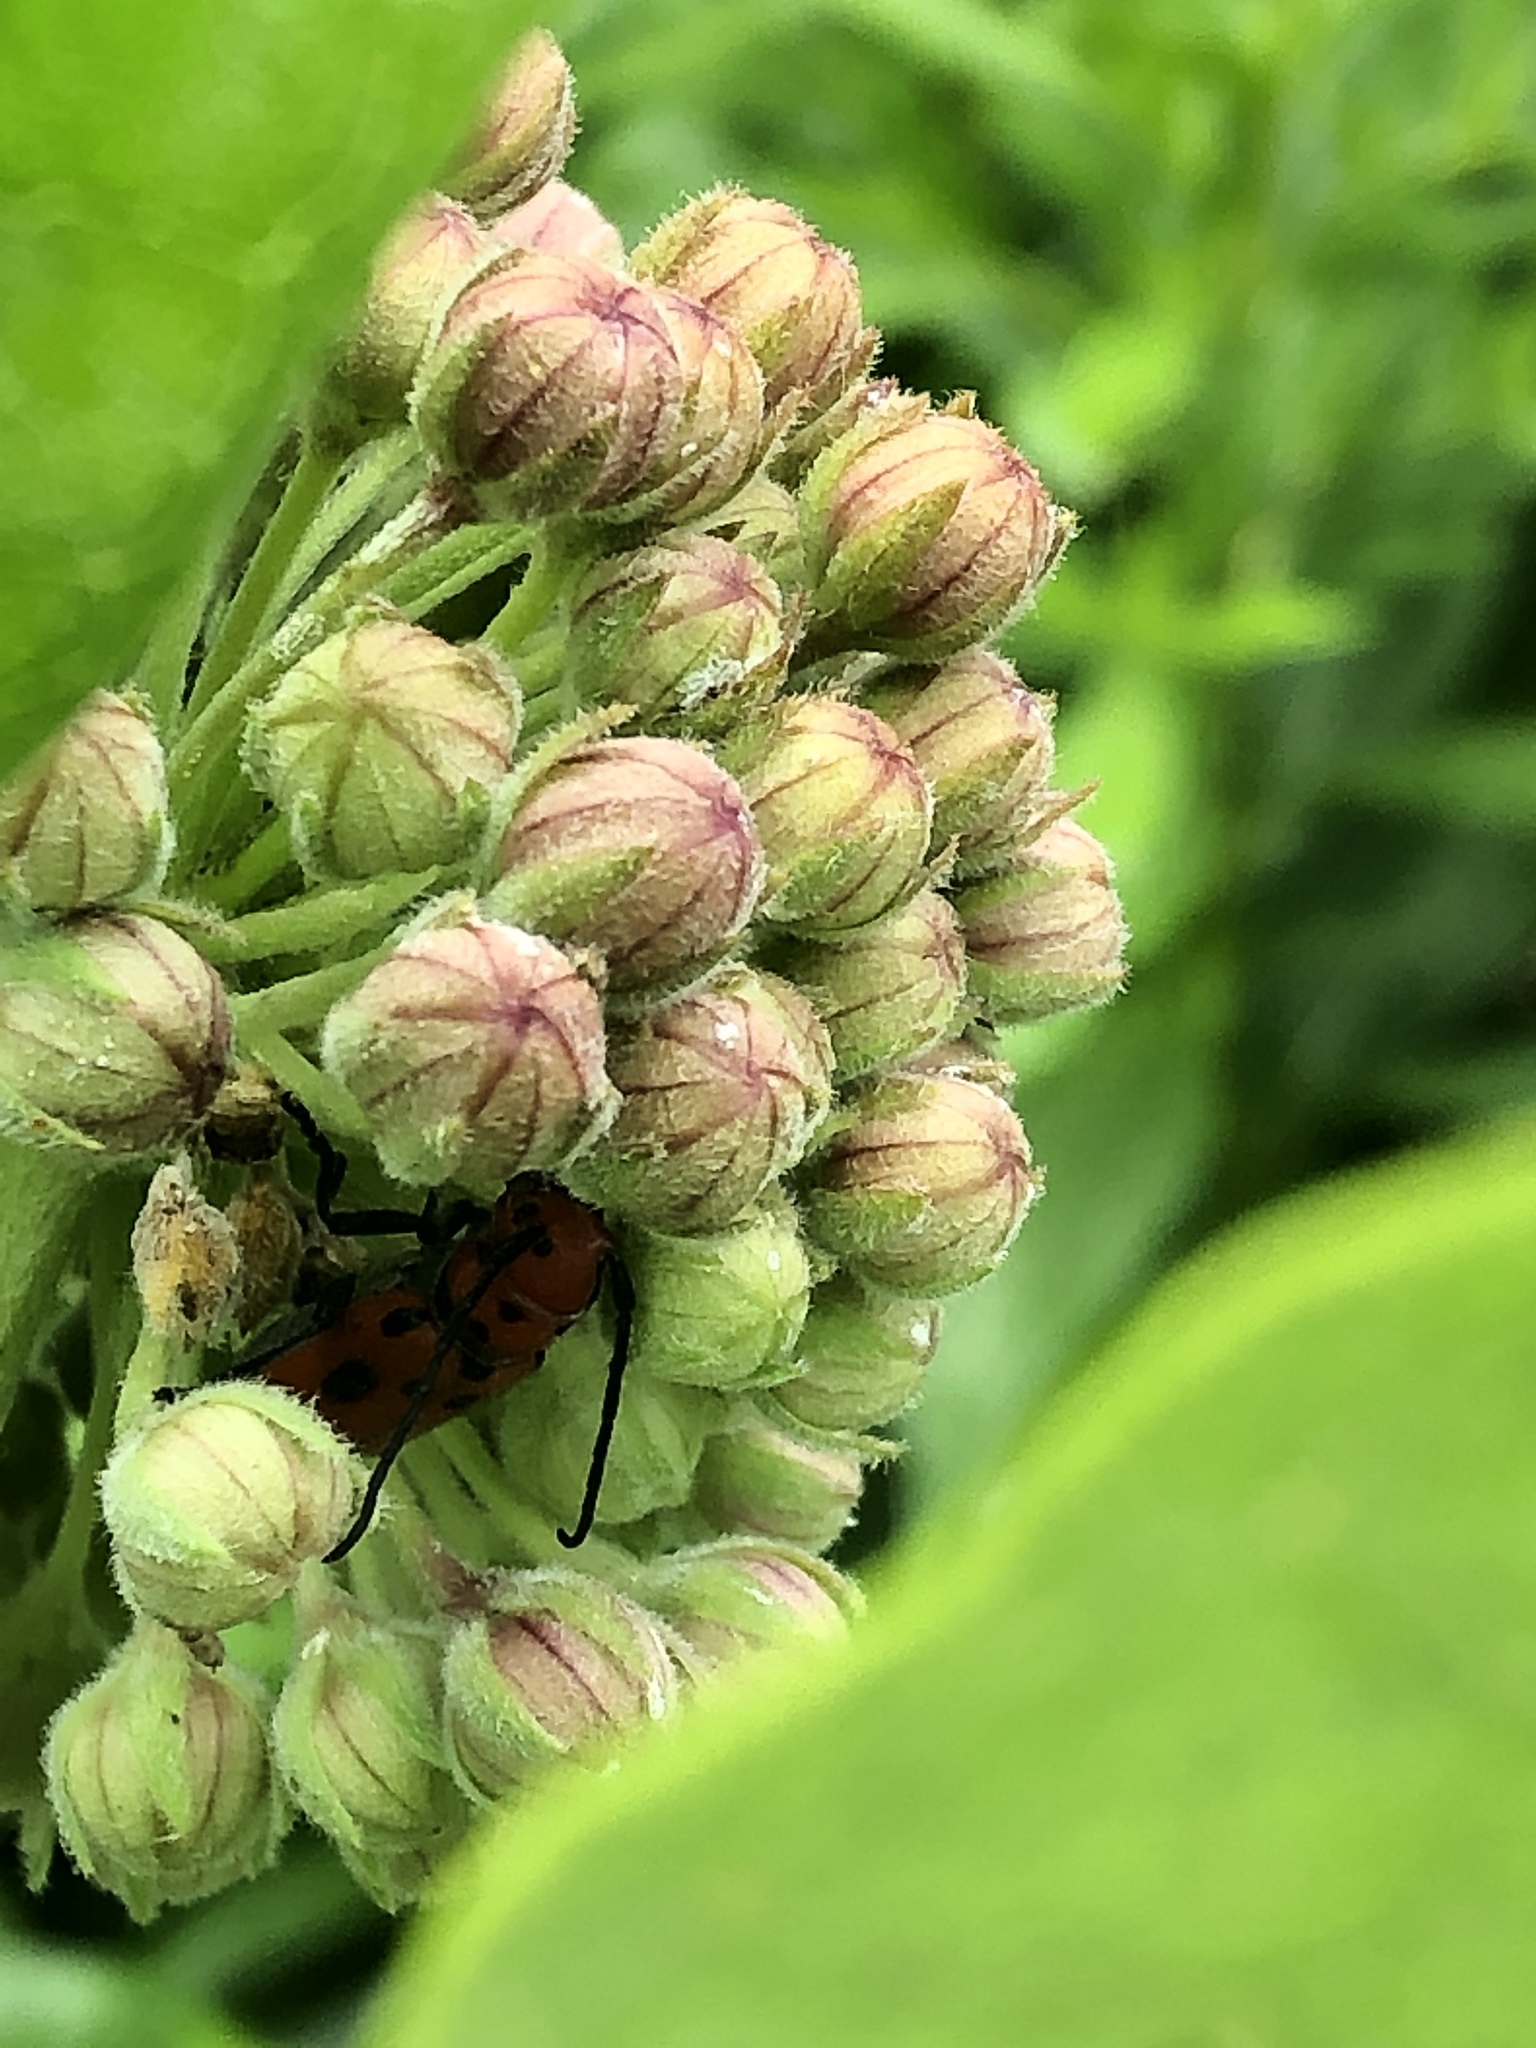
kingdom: Animalia
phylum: Arthropoda
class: Insecta
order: Coleoptera
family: Cerambycidae
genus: Tetraopes
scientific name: Tetraopes tetrophthalmus
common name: Red milkweed beetle
